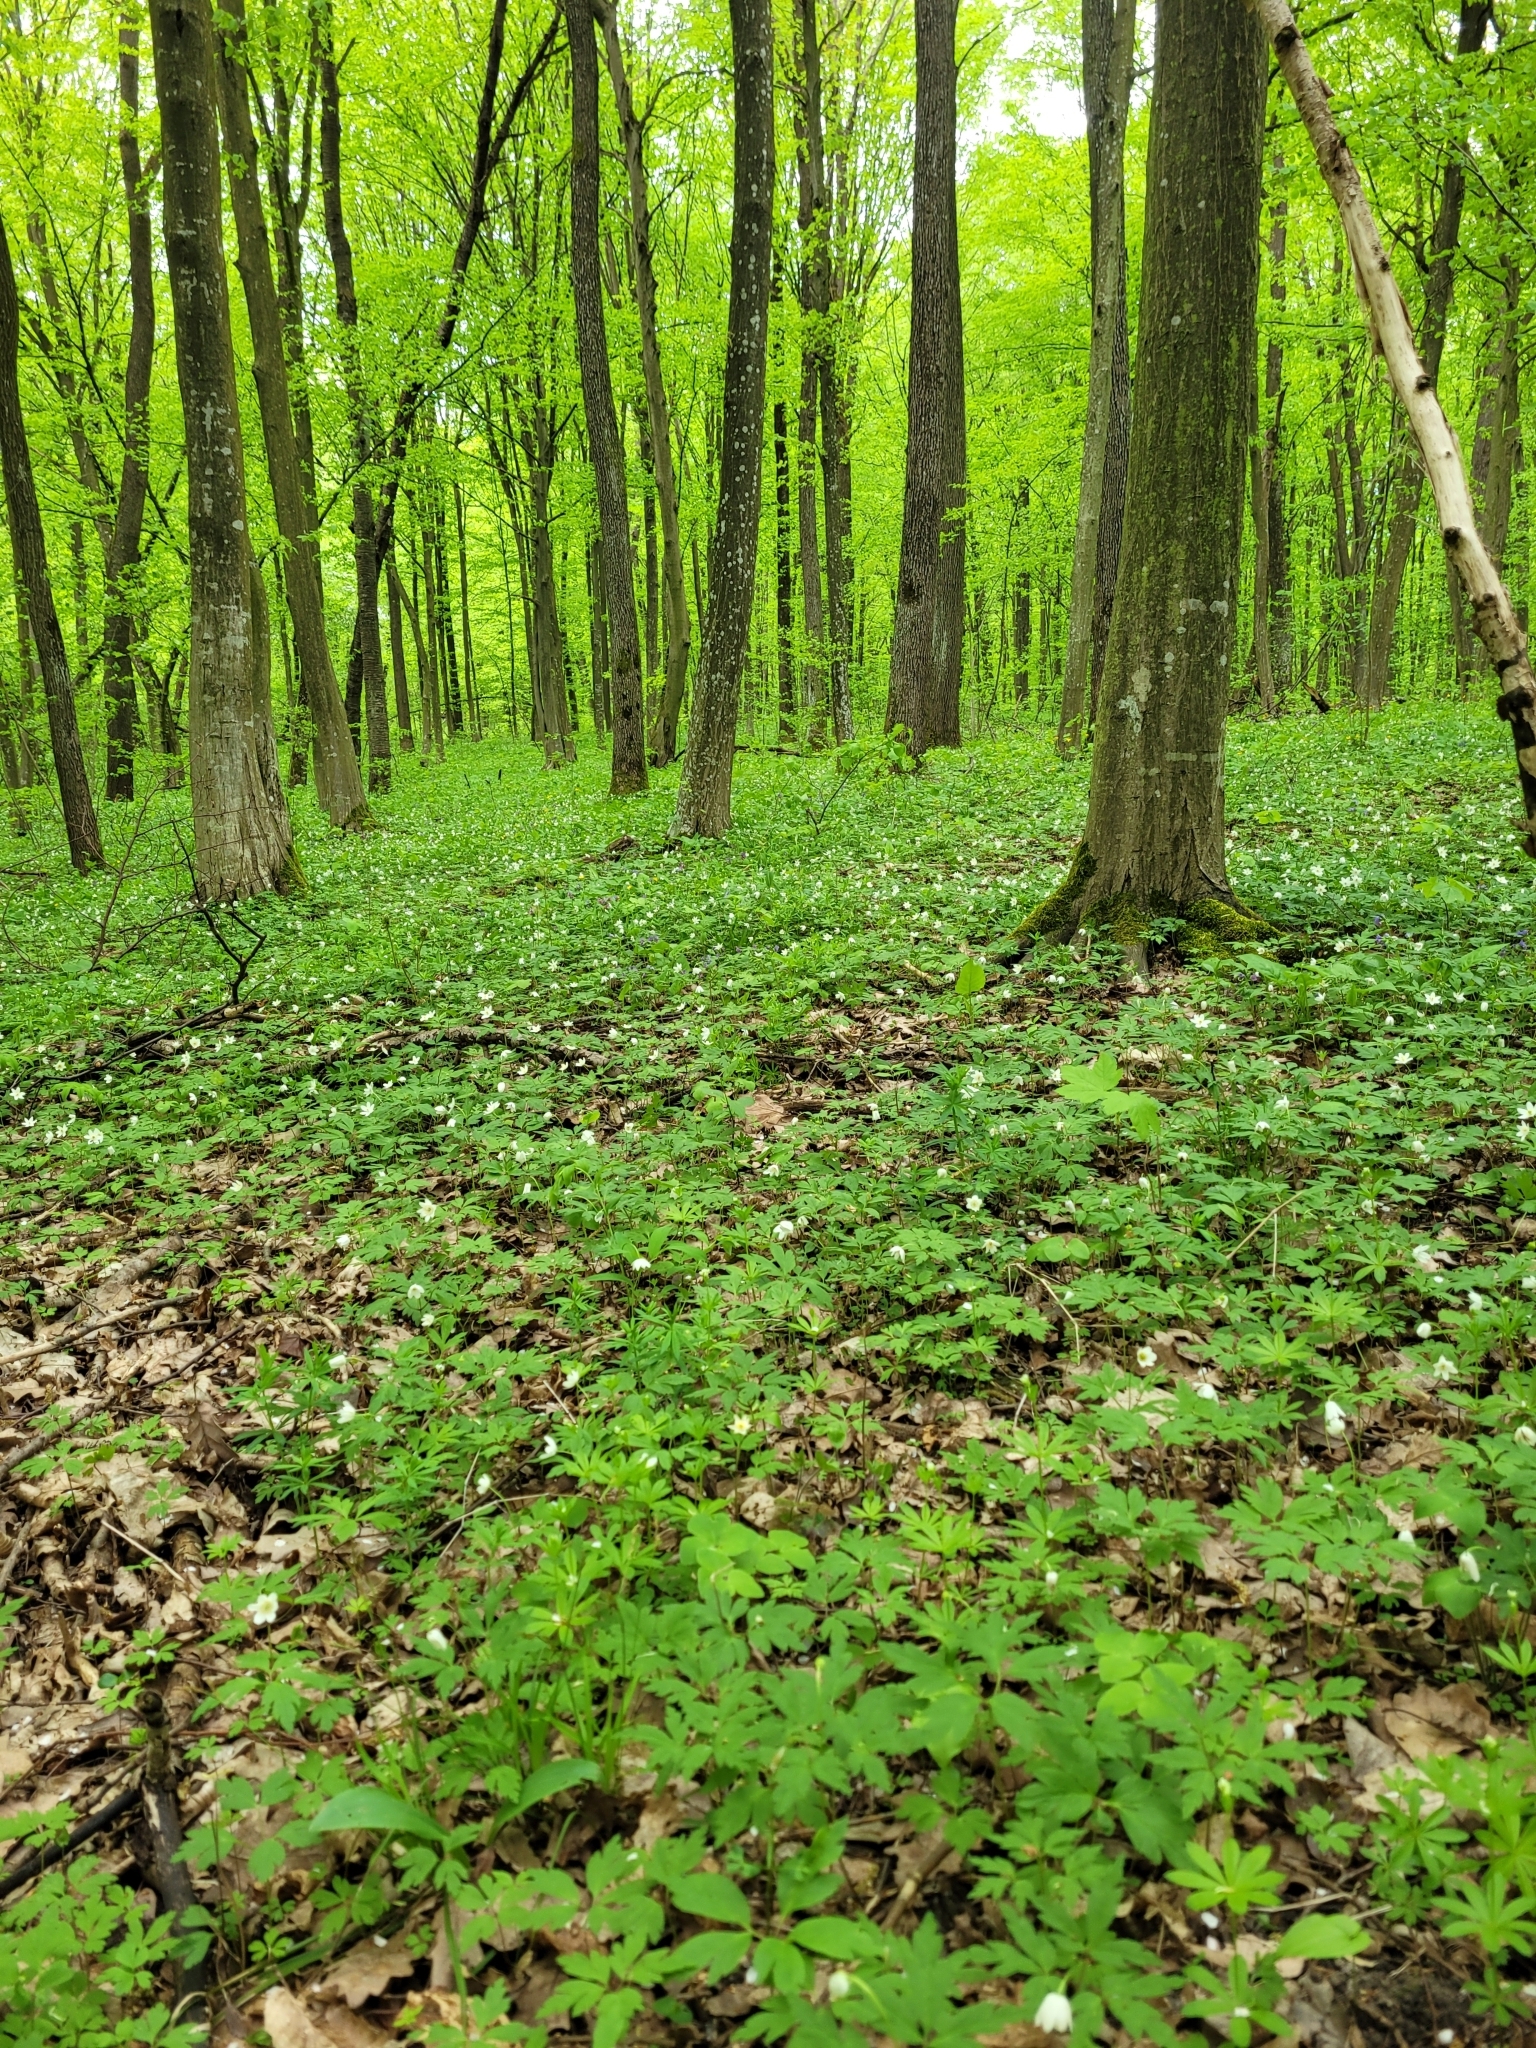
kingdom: Plantae
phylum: Tracheophyta
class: Magnoliopsida
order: Ranunculales
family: Ranunculaceae
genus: Anemone
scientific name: Anemone nemorosa
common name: Wood anemone
